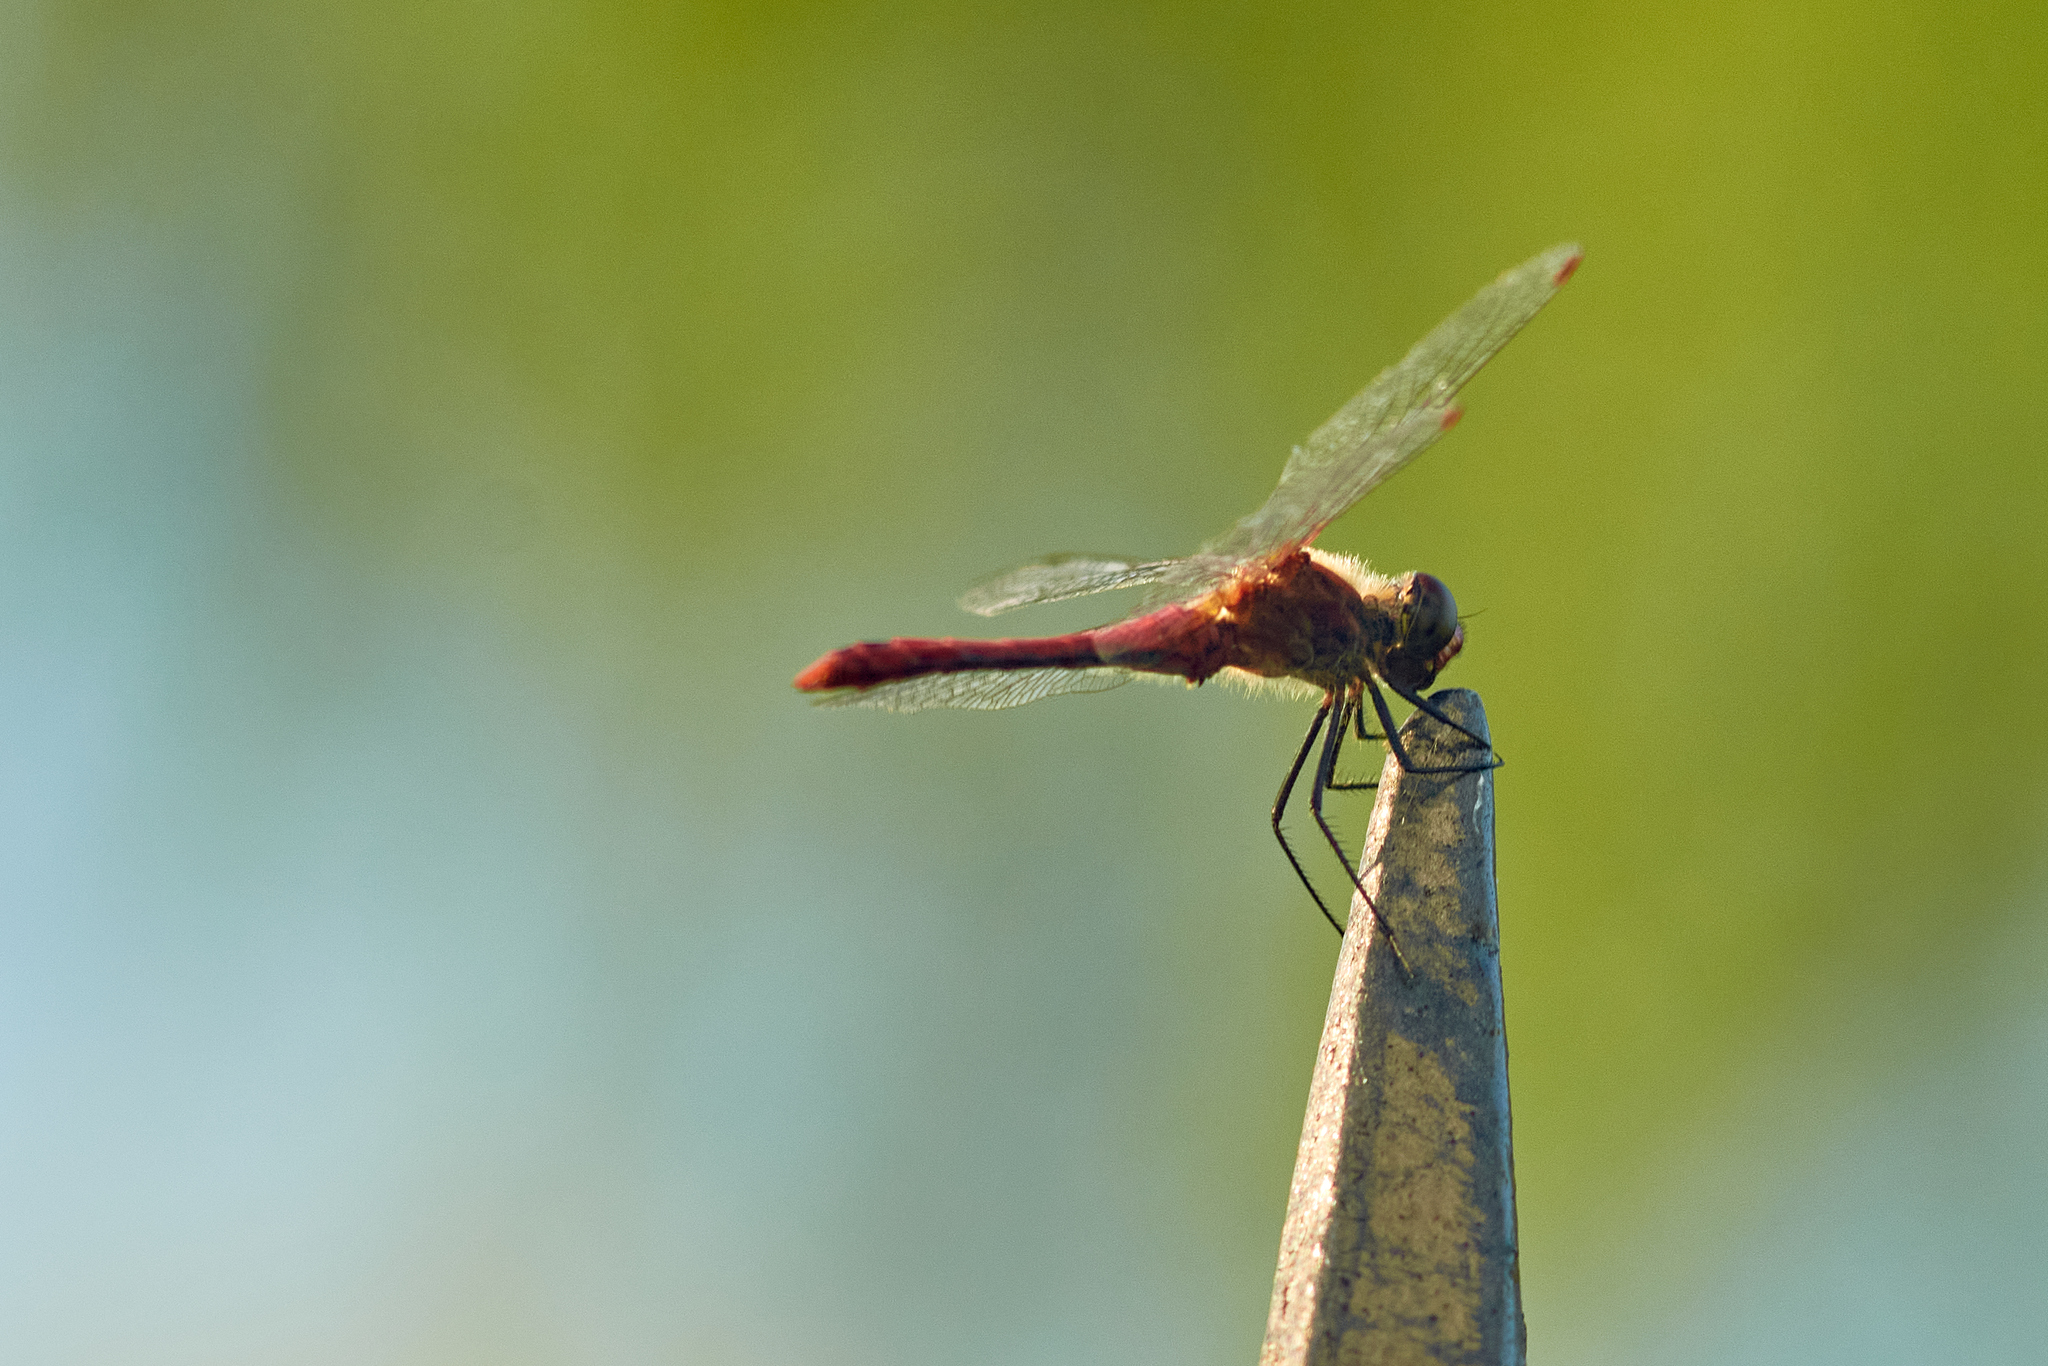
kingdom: Animalia
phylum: Arthropoda
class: Insecta
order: Odonata
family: Libellulidae
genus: Sympetrum
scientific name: Sympetrum sanguineum
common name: Ruddy darter
